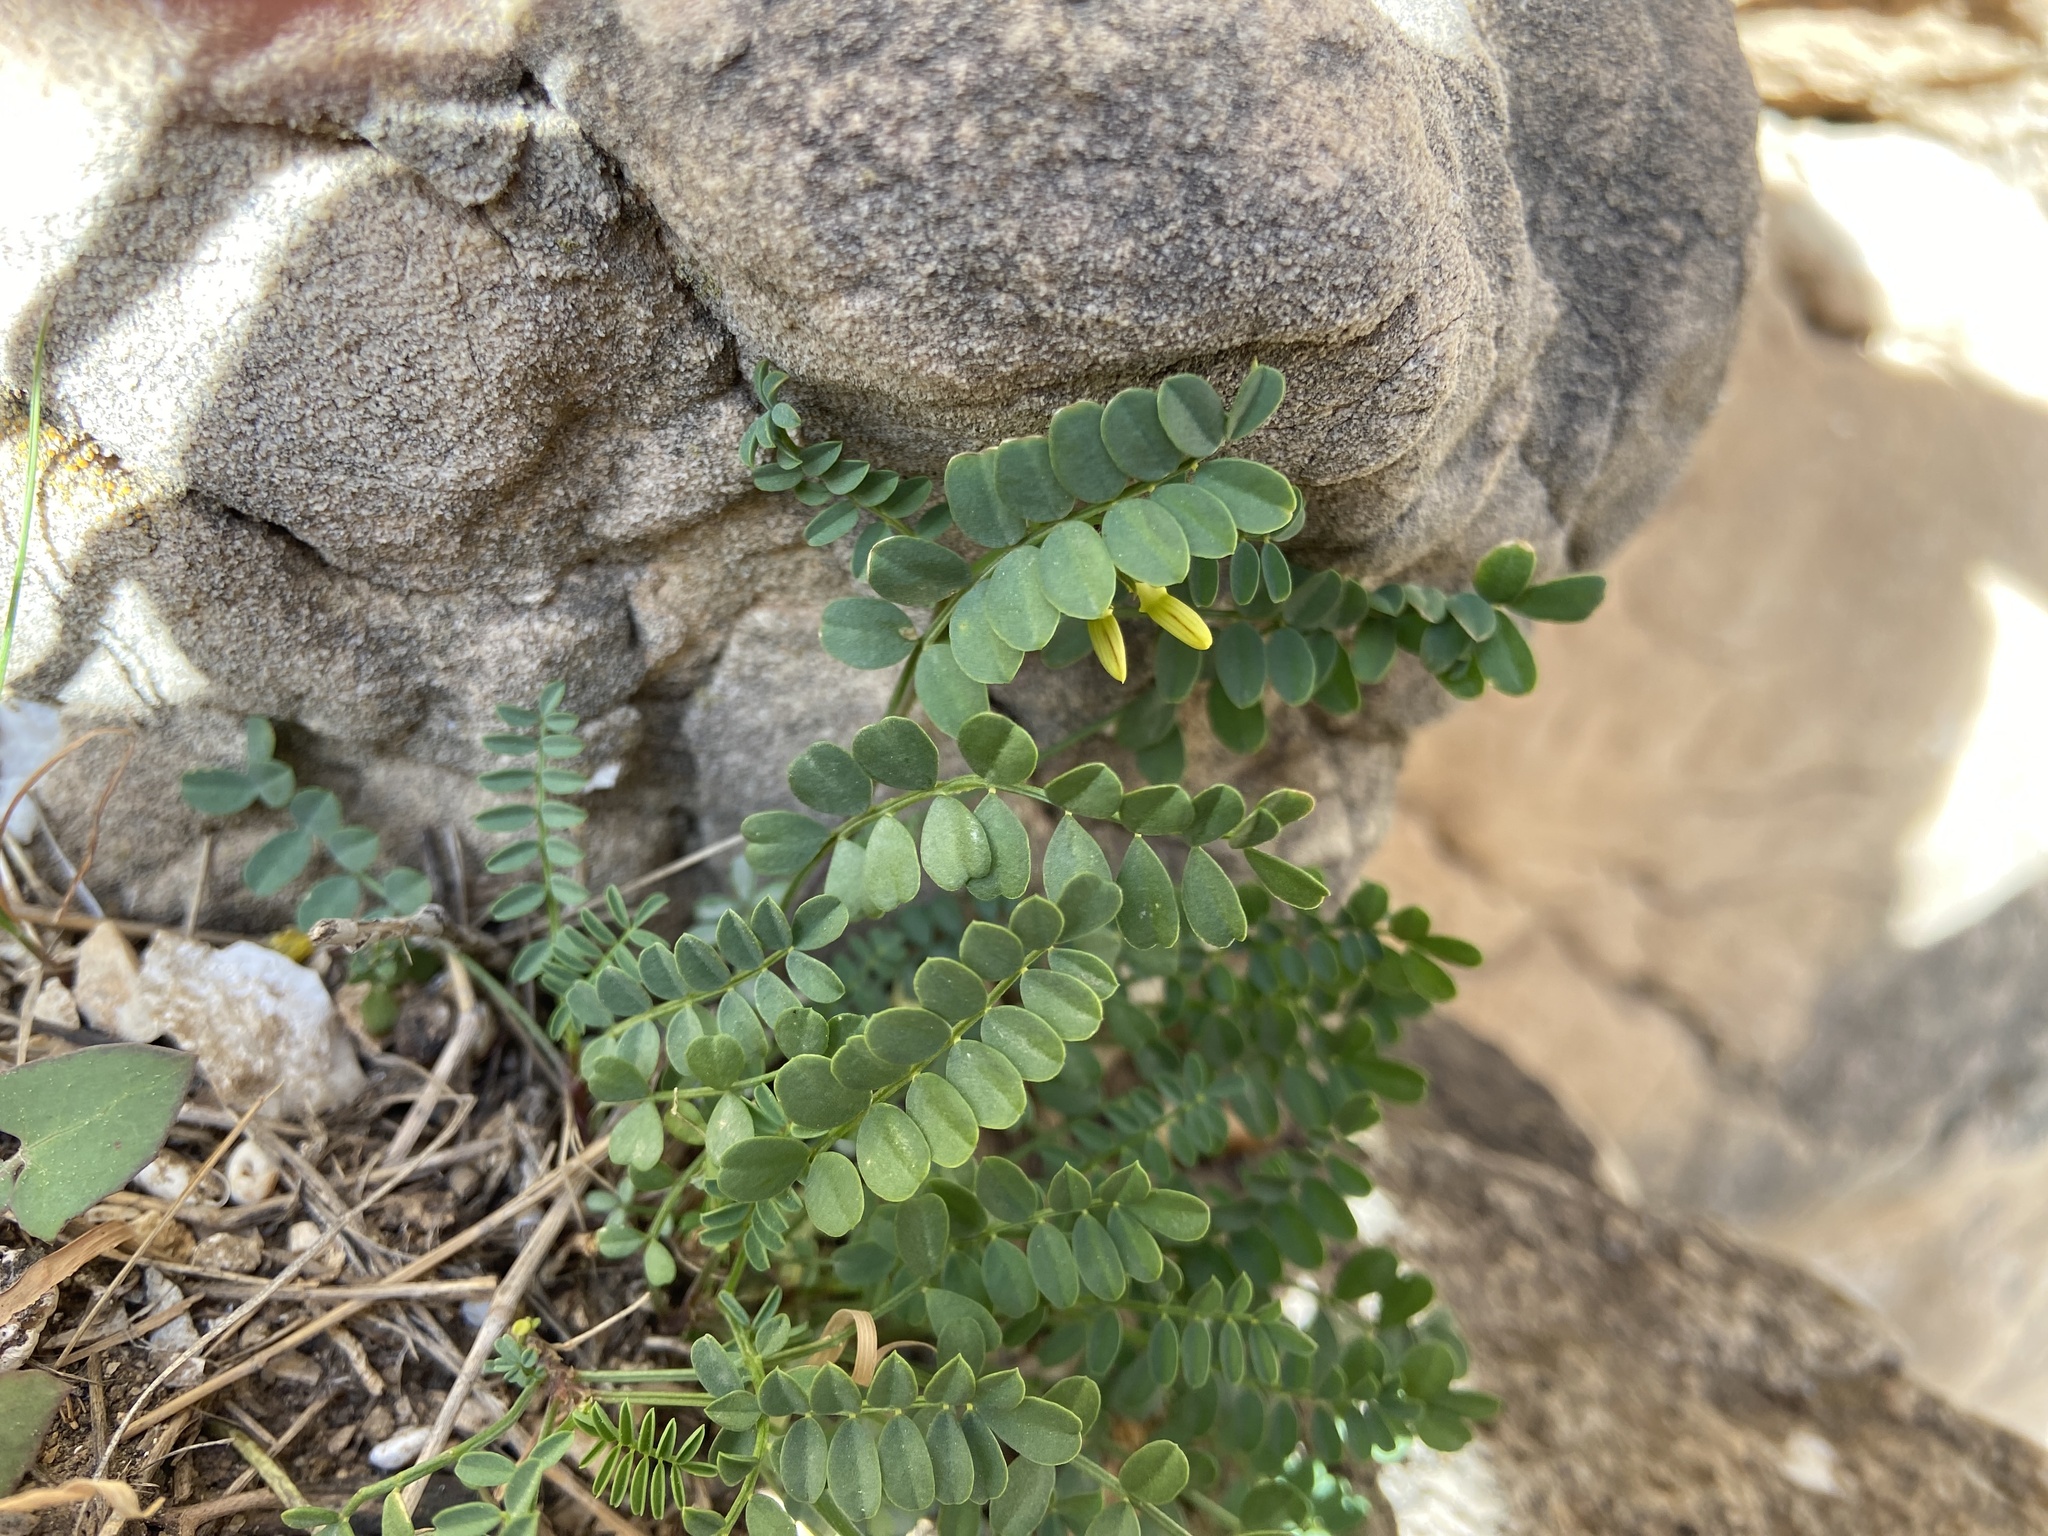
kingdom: Plantae
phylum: Tracheophyta
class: Magnoliopsida
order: Fabales
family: Fabaceae
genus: Vicia
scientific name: Vicia hybrida
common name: Hairy yellow vetch
